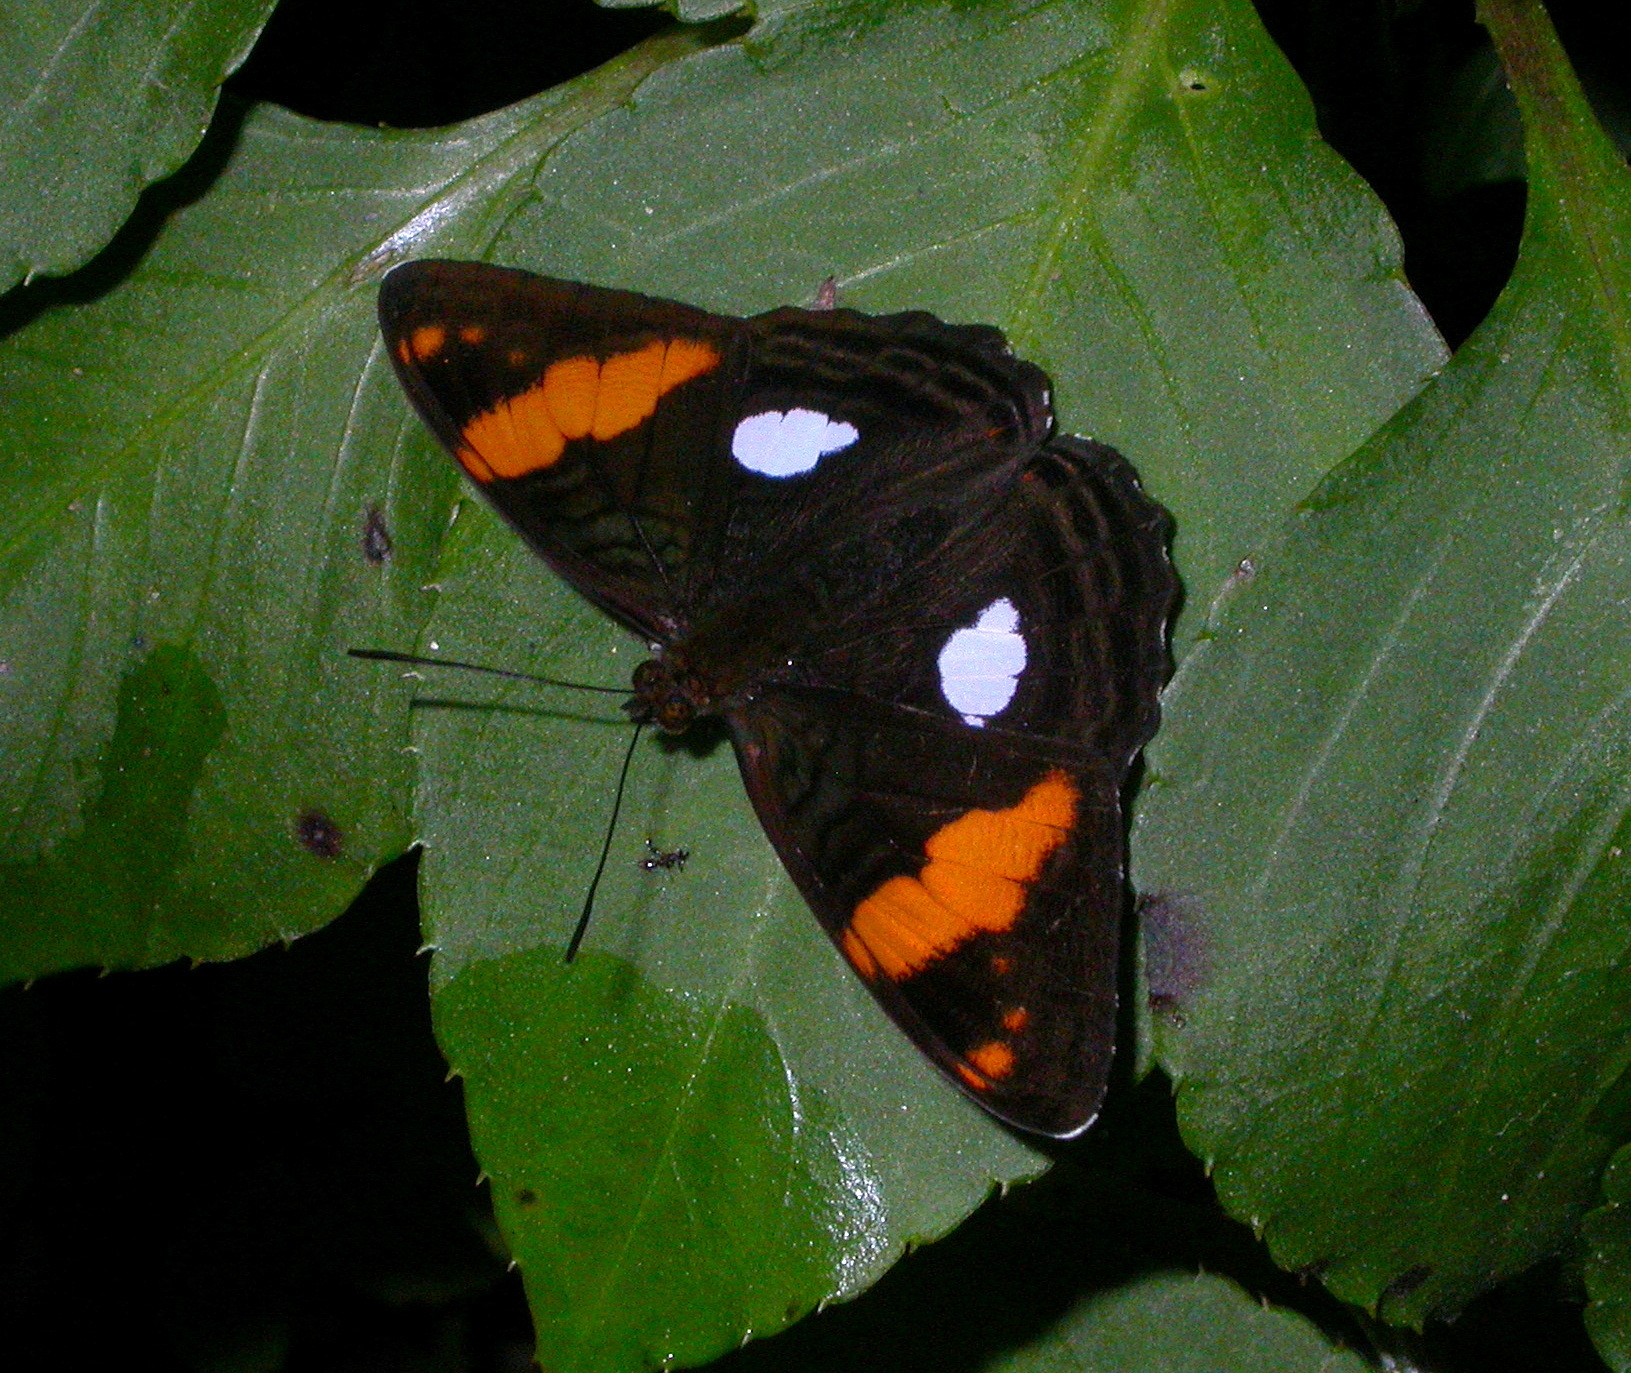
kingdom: Animalia
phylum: Arthropoda
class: Insecta
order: Lepidoptera
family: Nymphalidae
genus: Limenitis
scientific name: Limenitis zina
